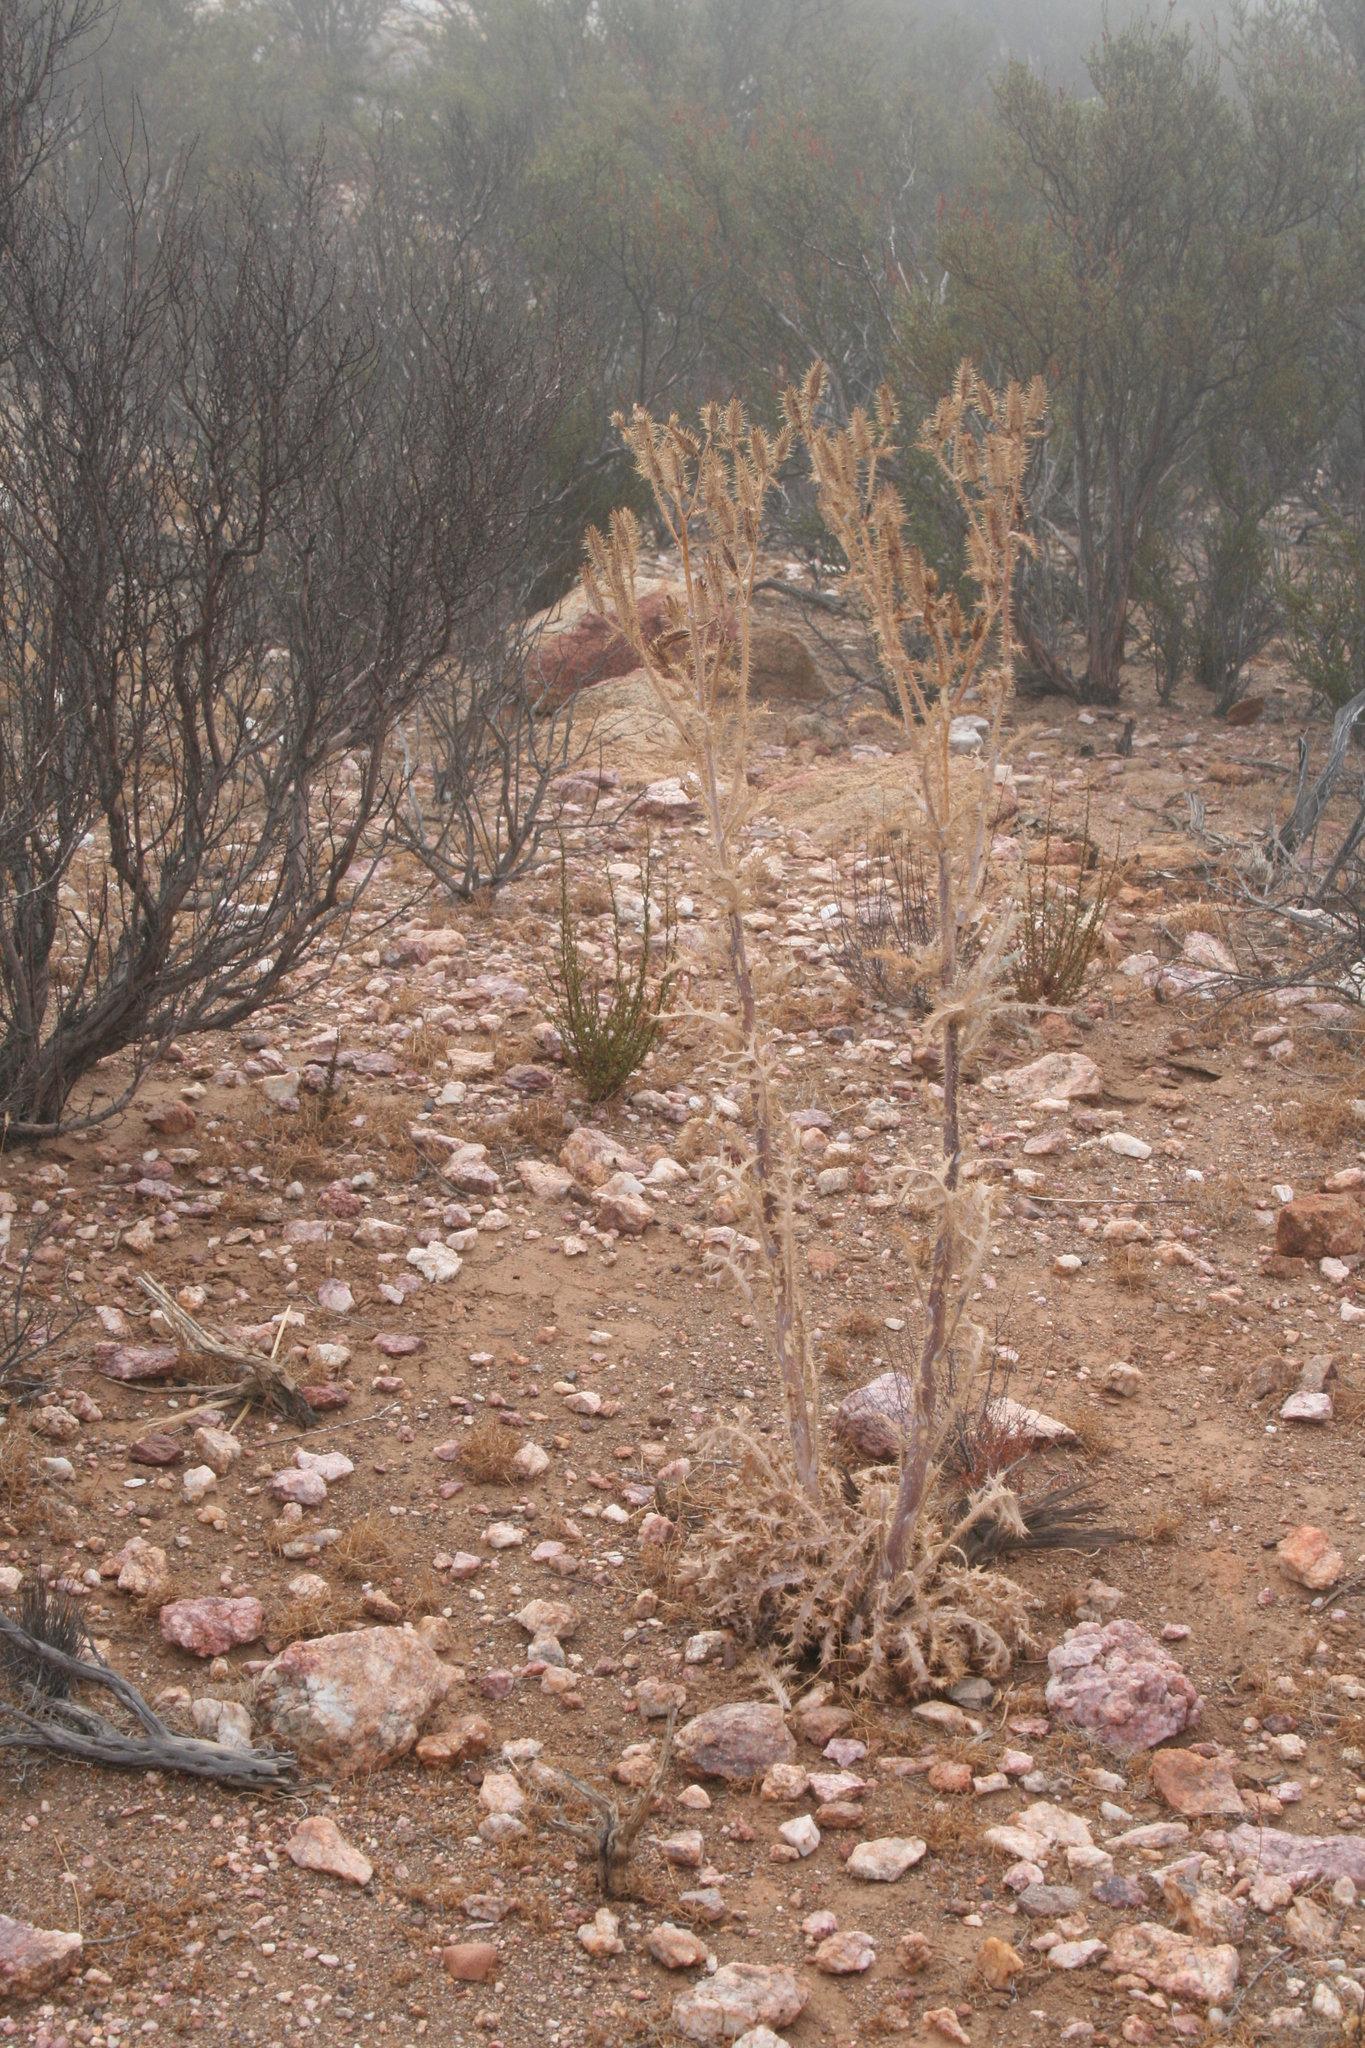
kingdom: Plantae
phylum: Tracheophyta
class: Magnoliopsida
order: Ranunculales
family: Papaveraceae
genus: Argemone
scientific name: Argemone munita
